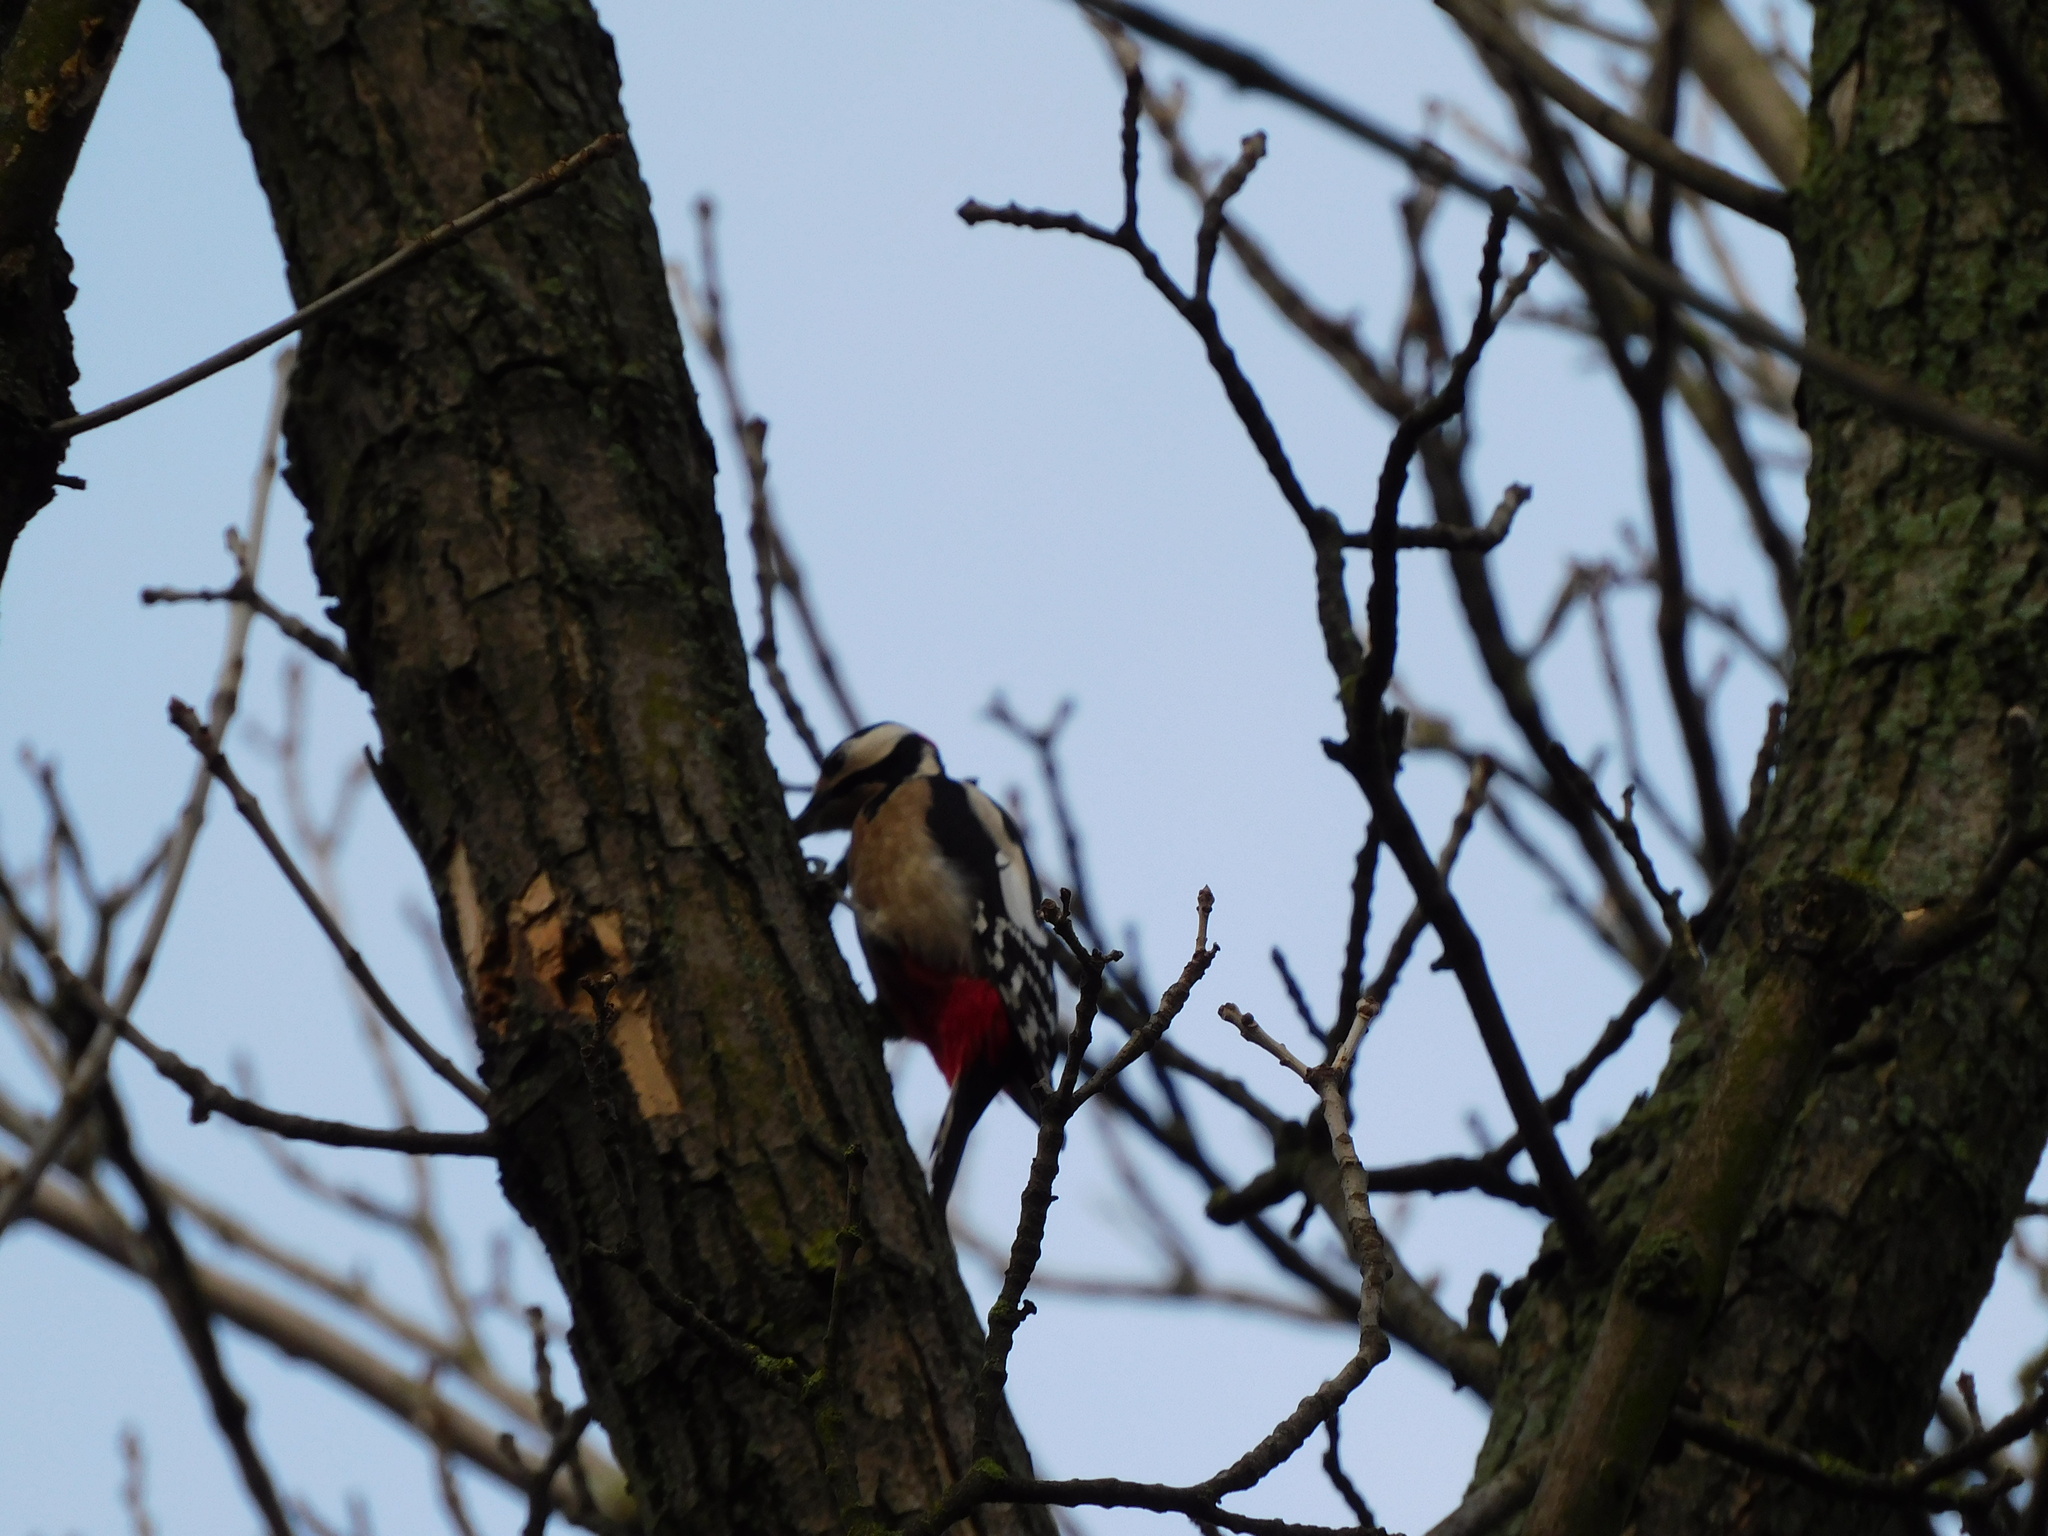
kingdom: Animalia
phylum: Chordata
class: Aves
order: Piciformes
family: Picidae
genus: Dendrocopos
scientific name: Dendrocopos major
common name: Great spotted woodpecker
